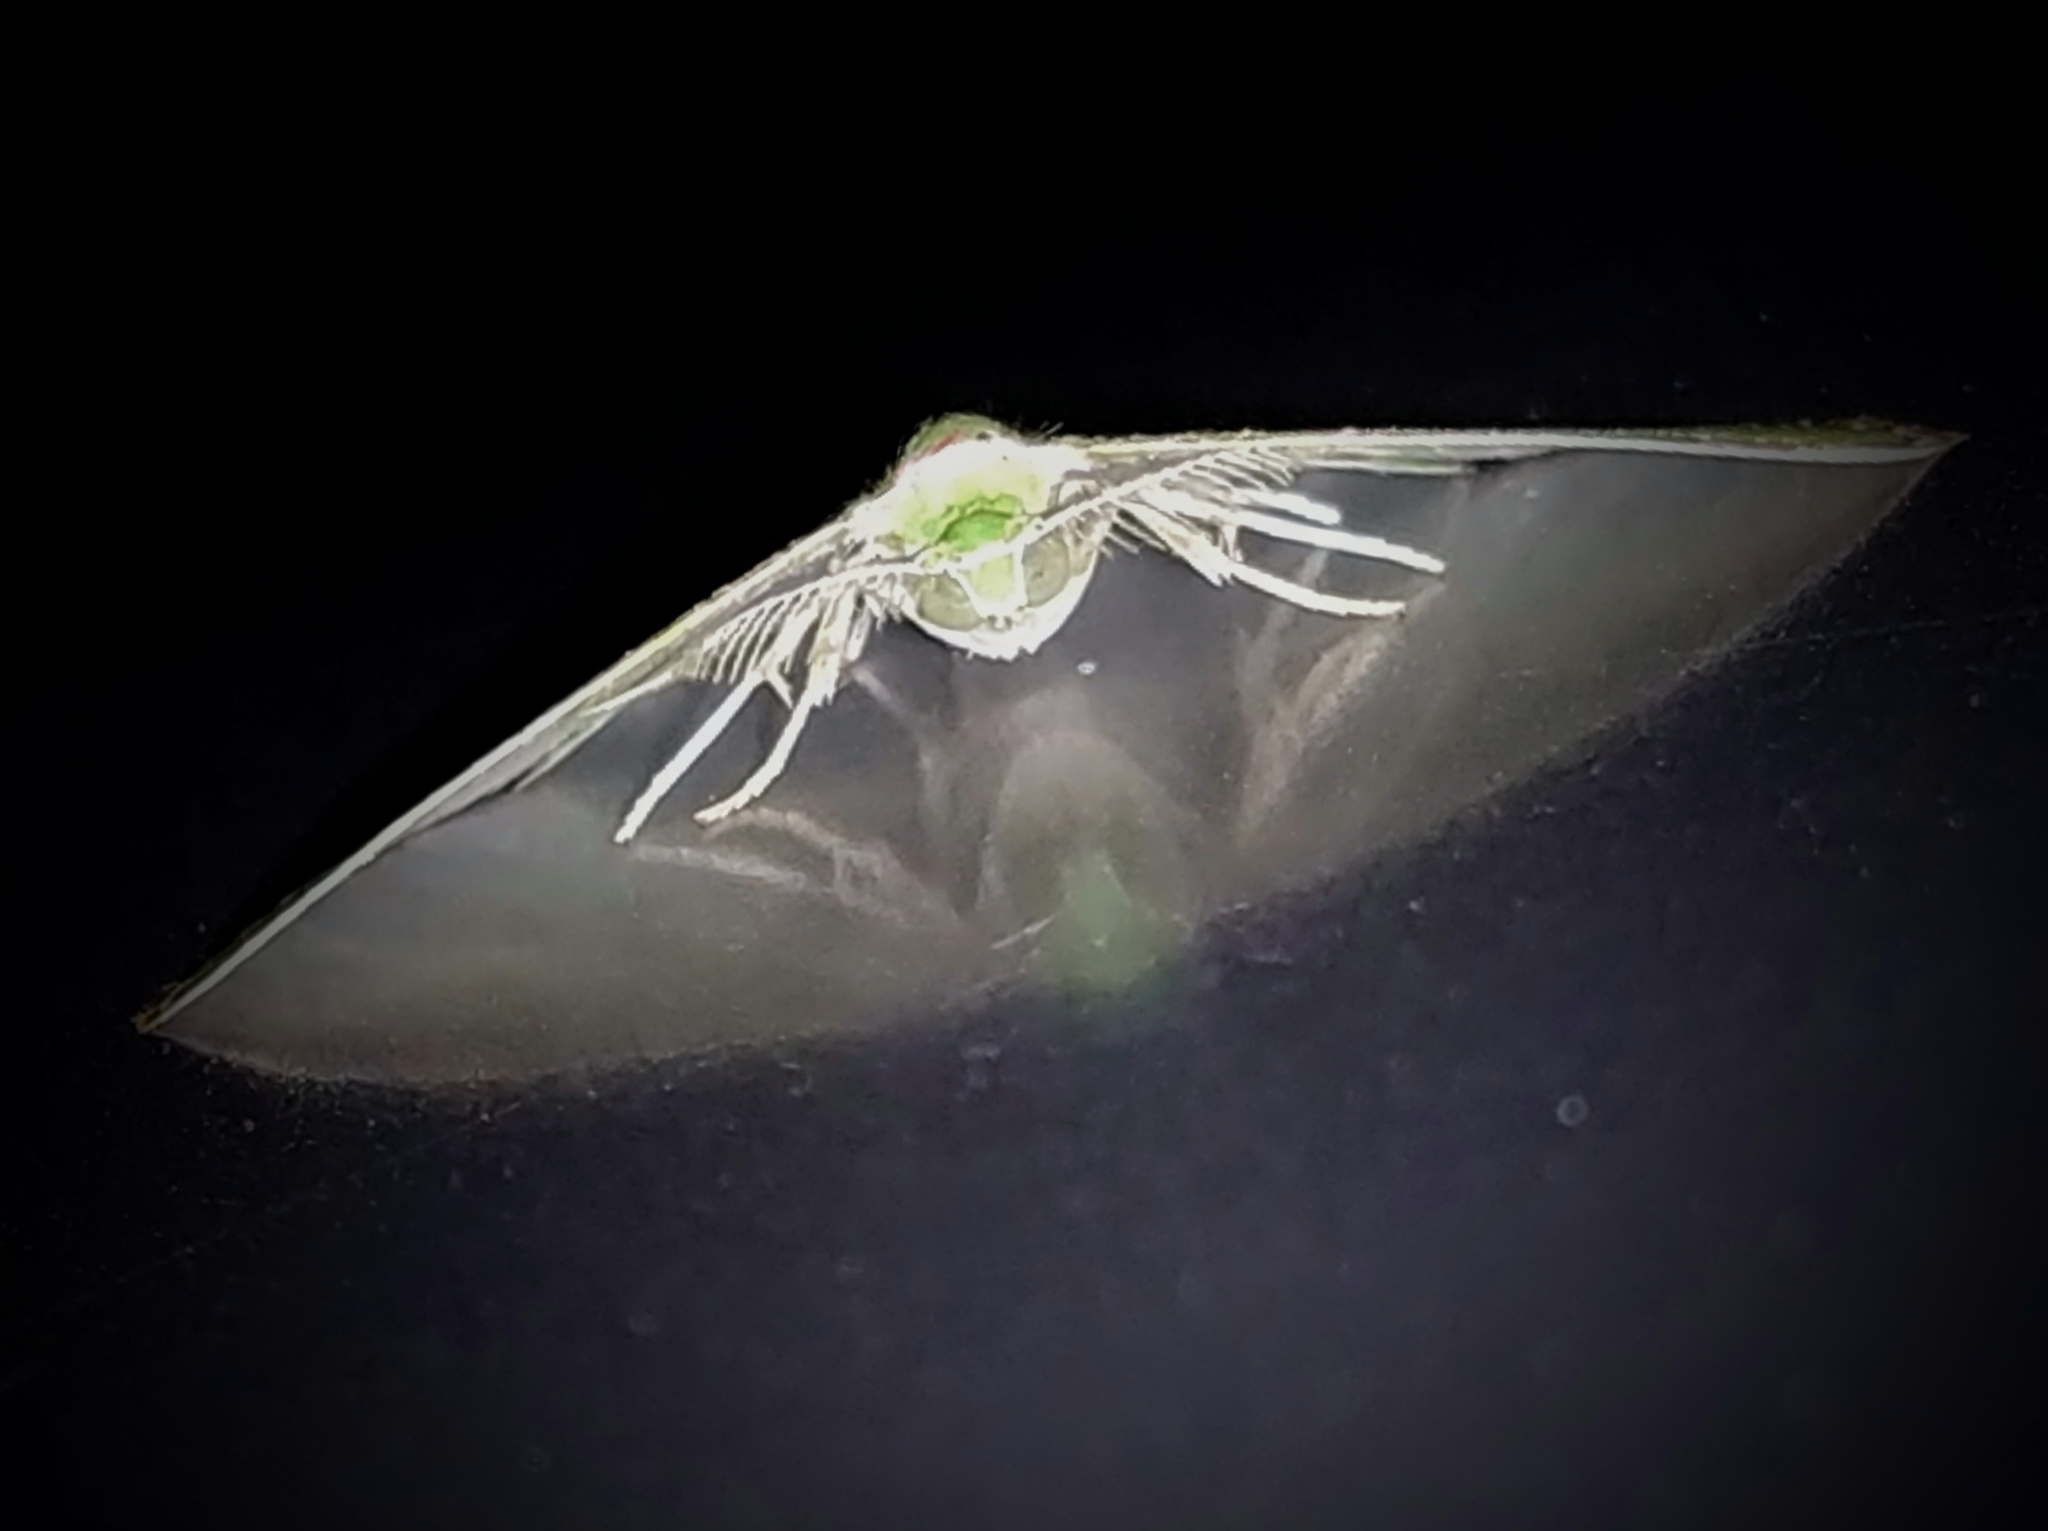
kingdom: Animalia
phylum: Arthropoda
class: Insecta
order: Lepidoptera
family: Geometridae
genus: Argyrocosma
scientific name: Argyrocosma inductaria
